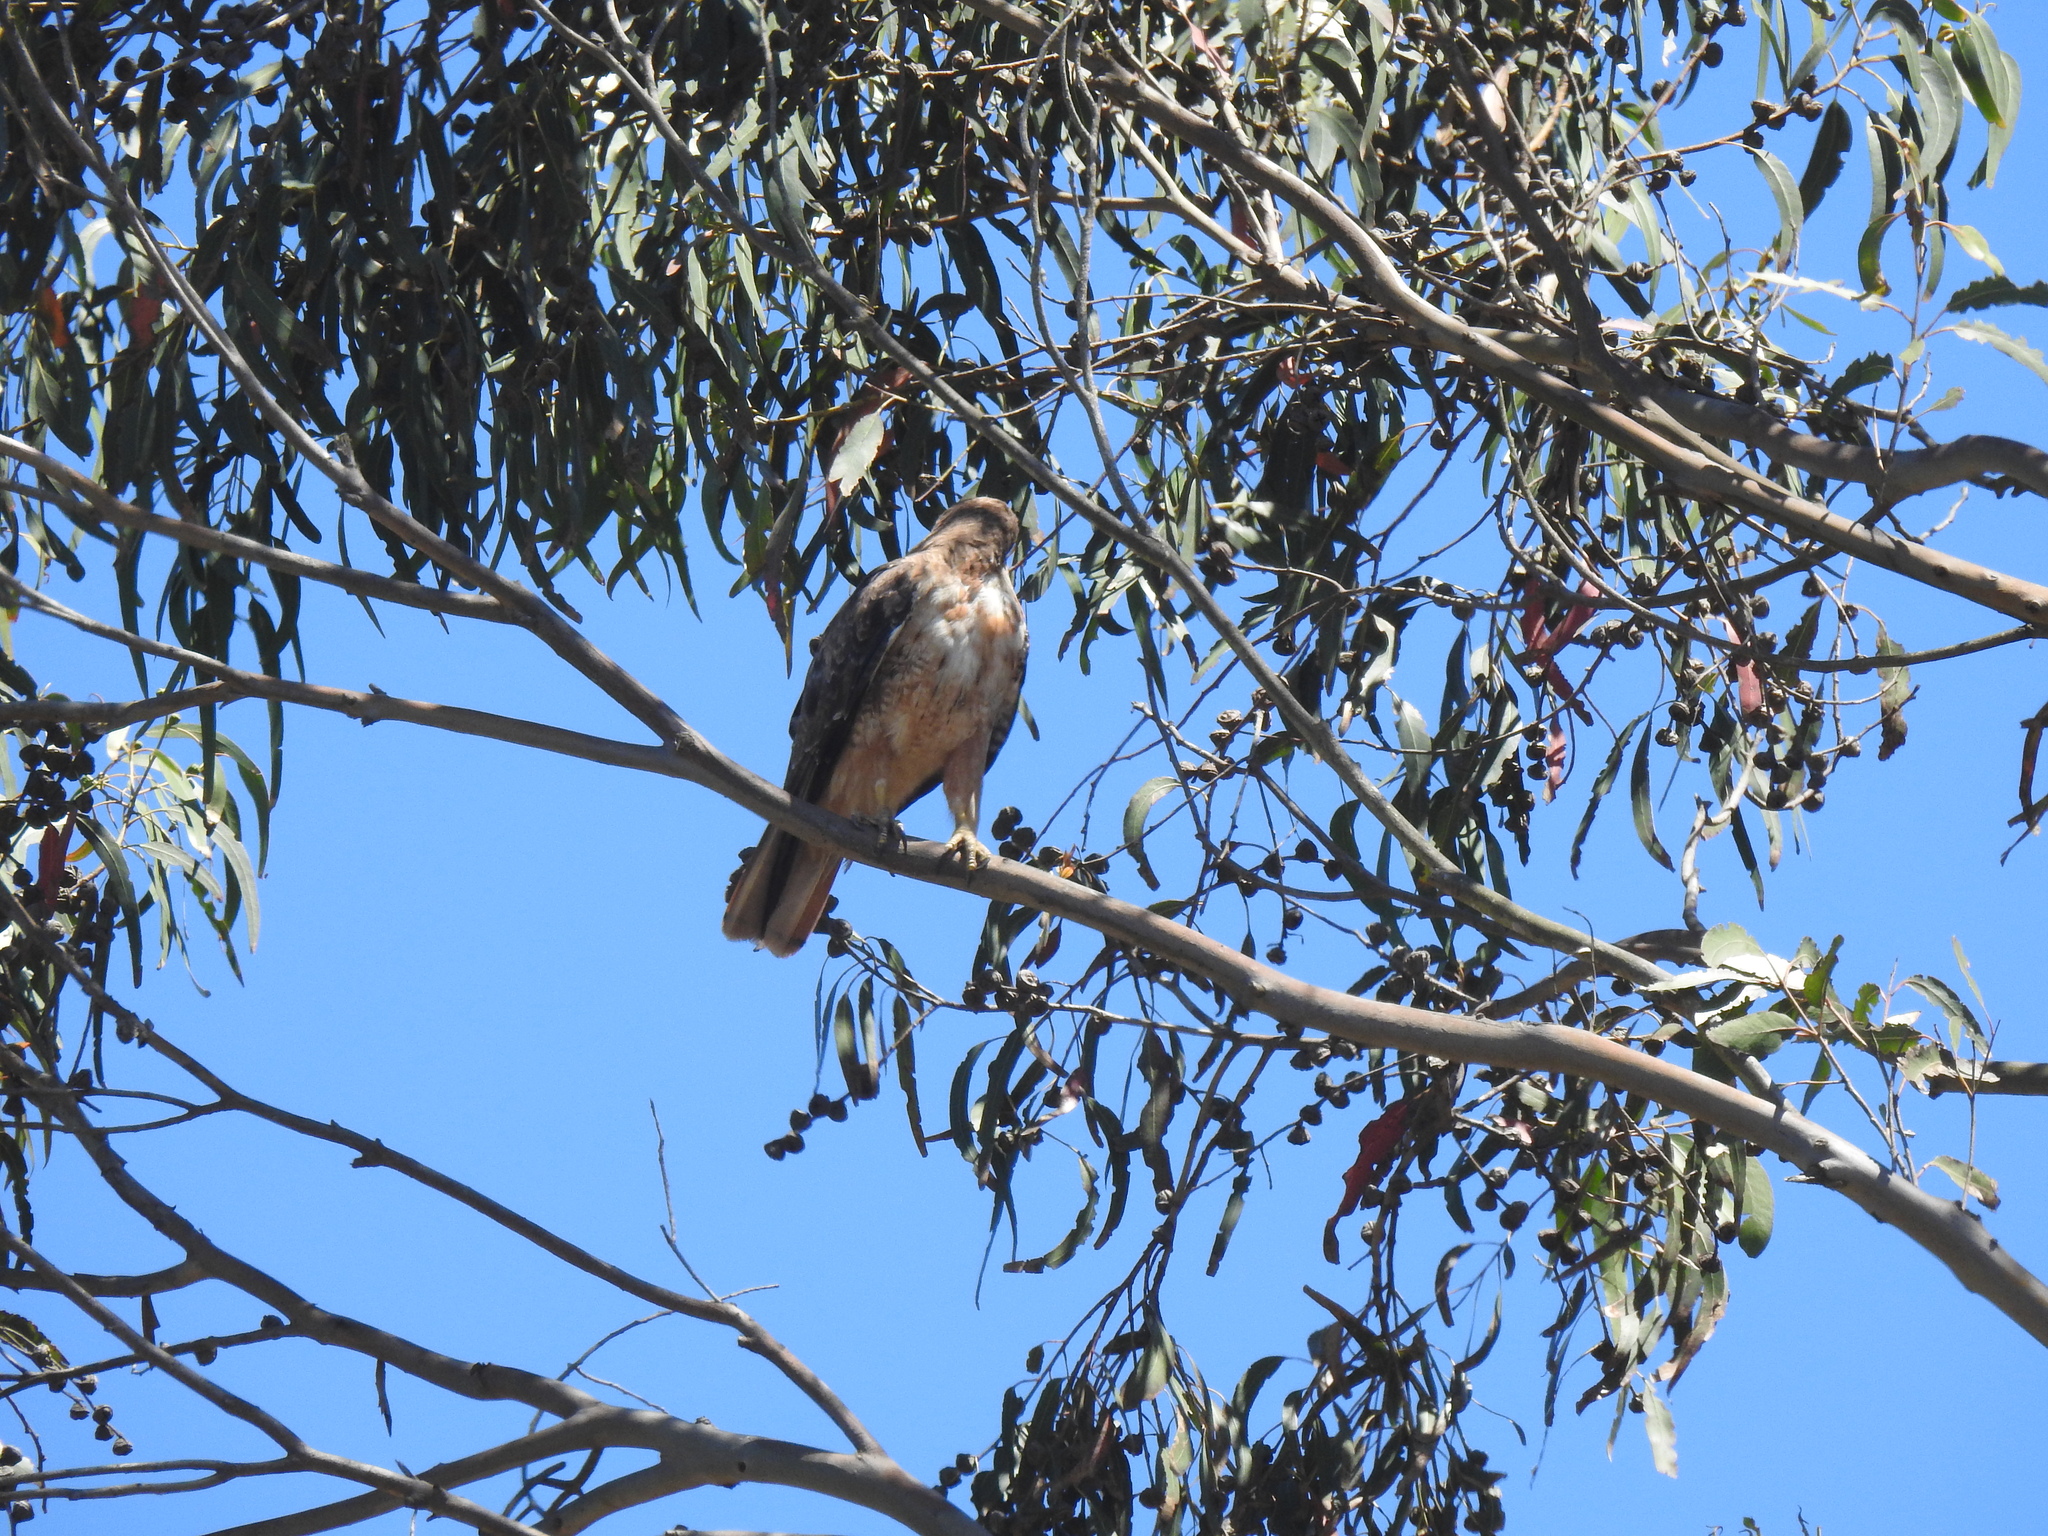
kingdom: Animalia
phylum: Chordata
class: Aves
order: Accipitriformes
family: Accipitridae
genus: Buteo
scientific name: Buteo jamaicensis
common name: Red-tailed hawk
